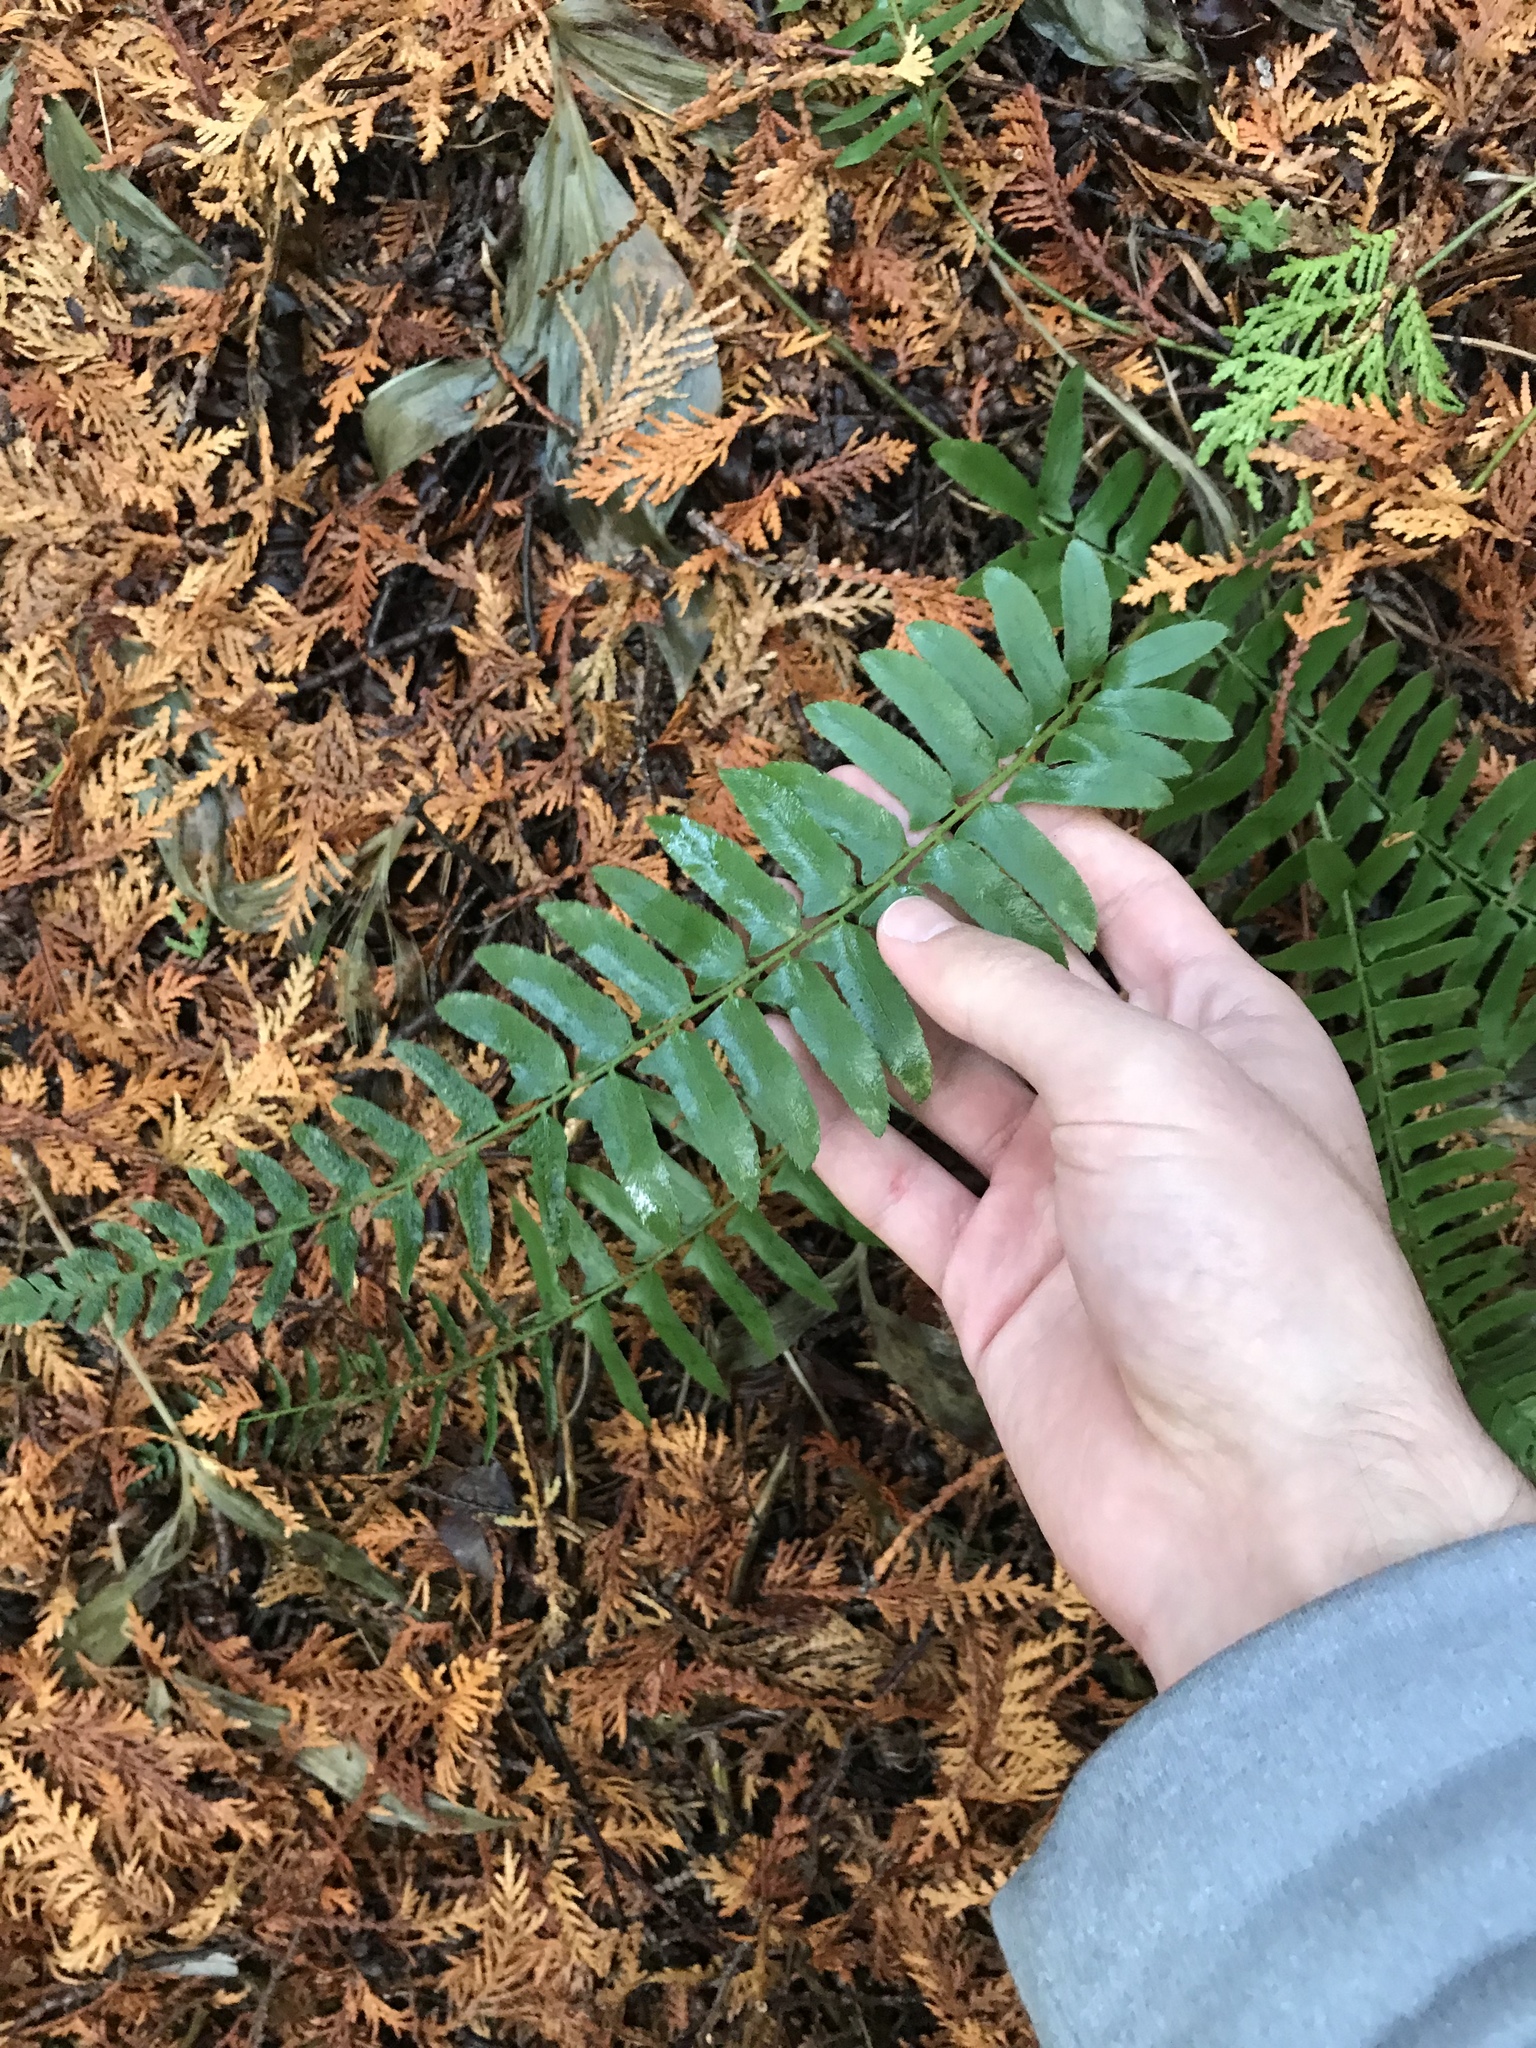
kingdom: Plantae
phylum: Tracheophyta
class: Polypodiopsida
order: Polypodiales
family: Dryopteridaceae
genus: Polystichum
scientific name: Polystichum acrostichoides
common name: Christmas fern
